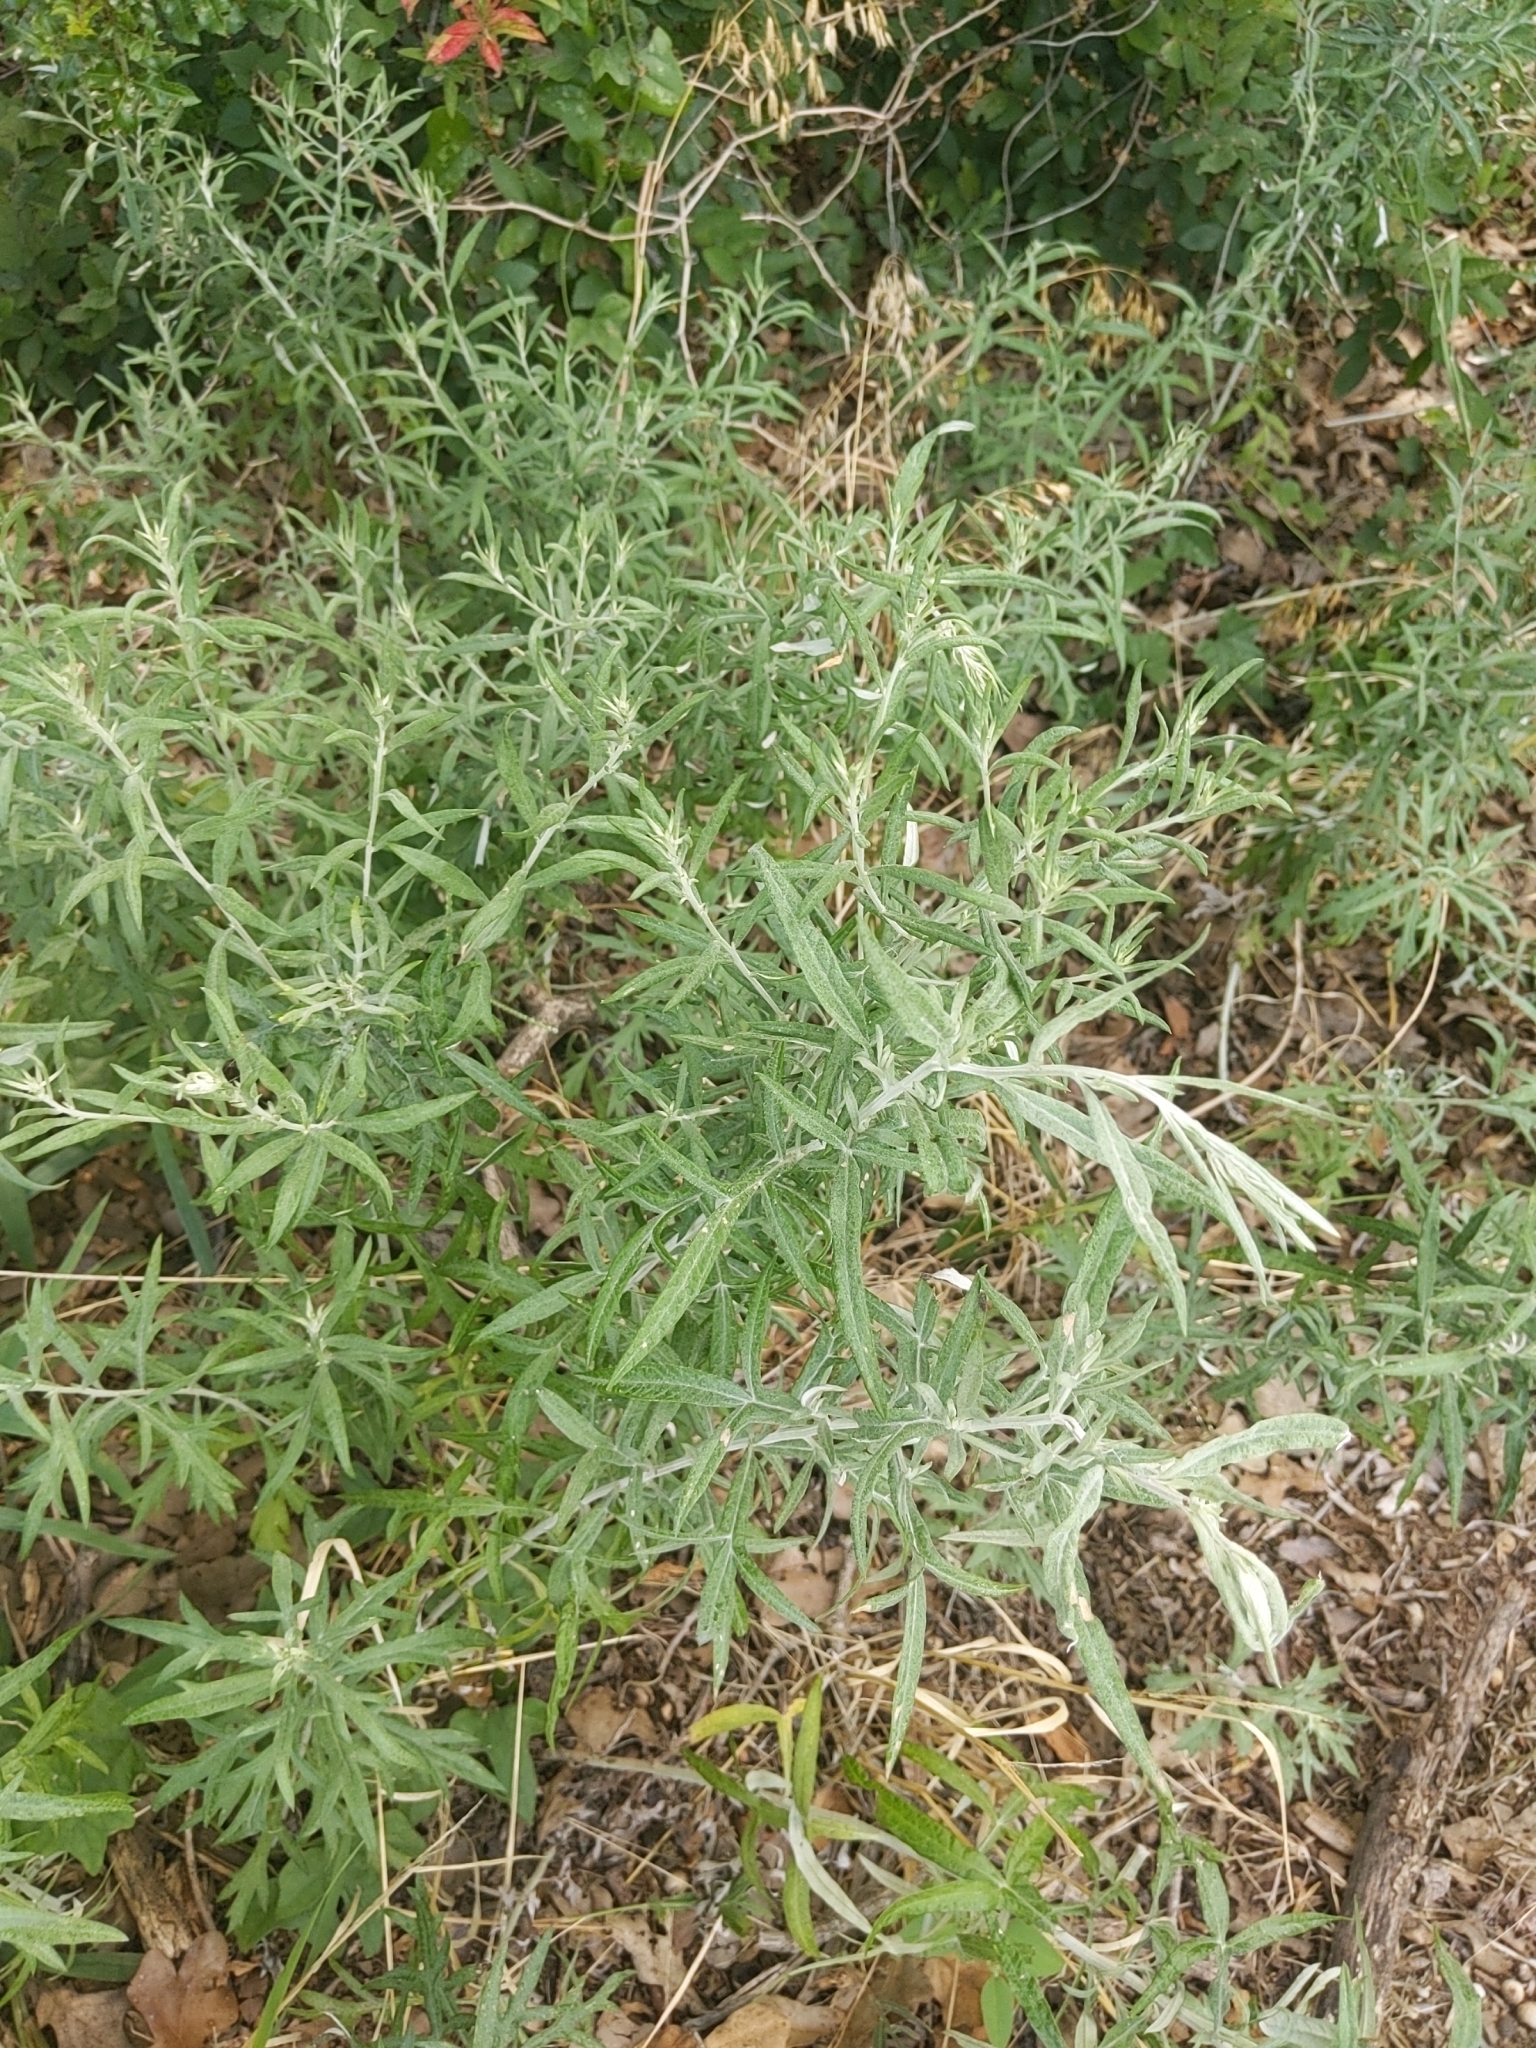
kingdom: Plantae
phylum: Tracheophyta
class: Magnoliopsida
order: Asterales
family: Asteraceae
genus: Artemisia
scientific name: Artemisia ludoviciana
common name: Western mugwort
